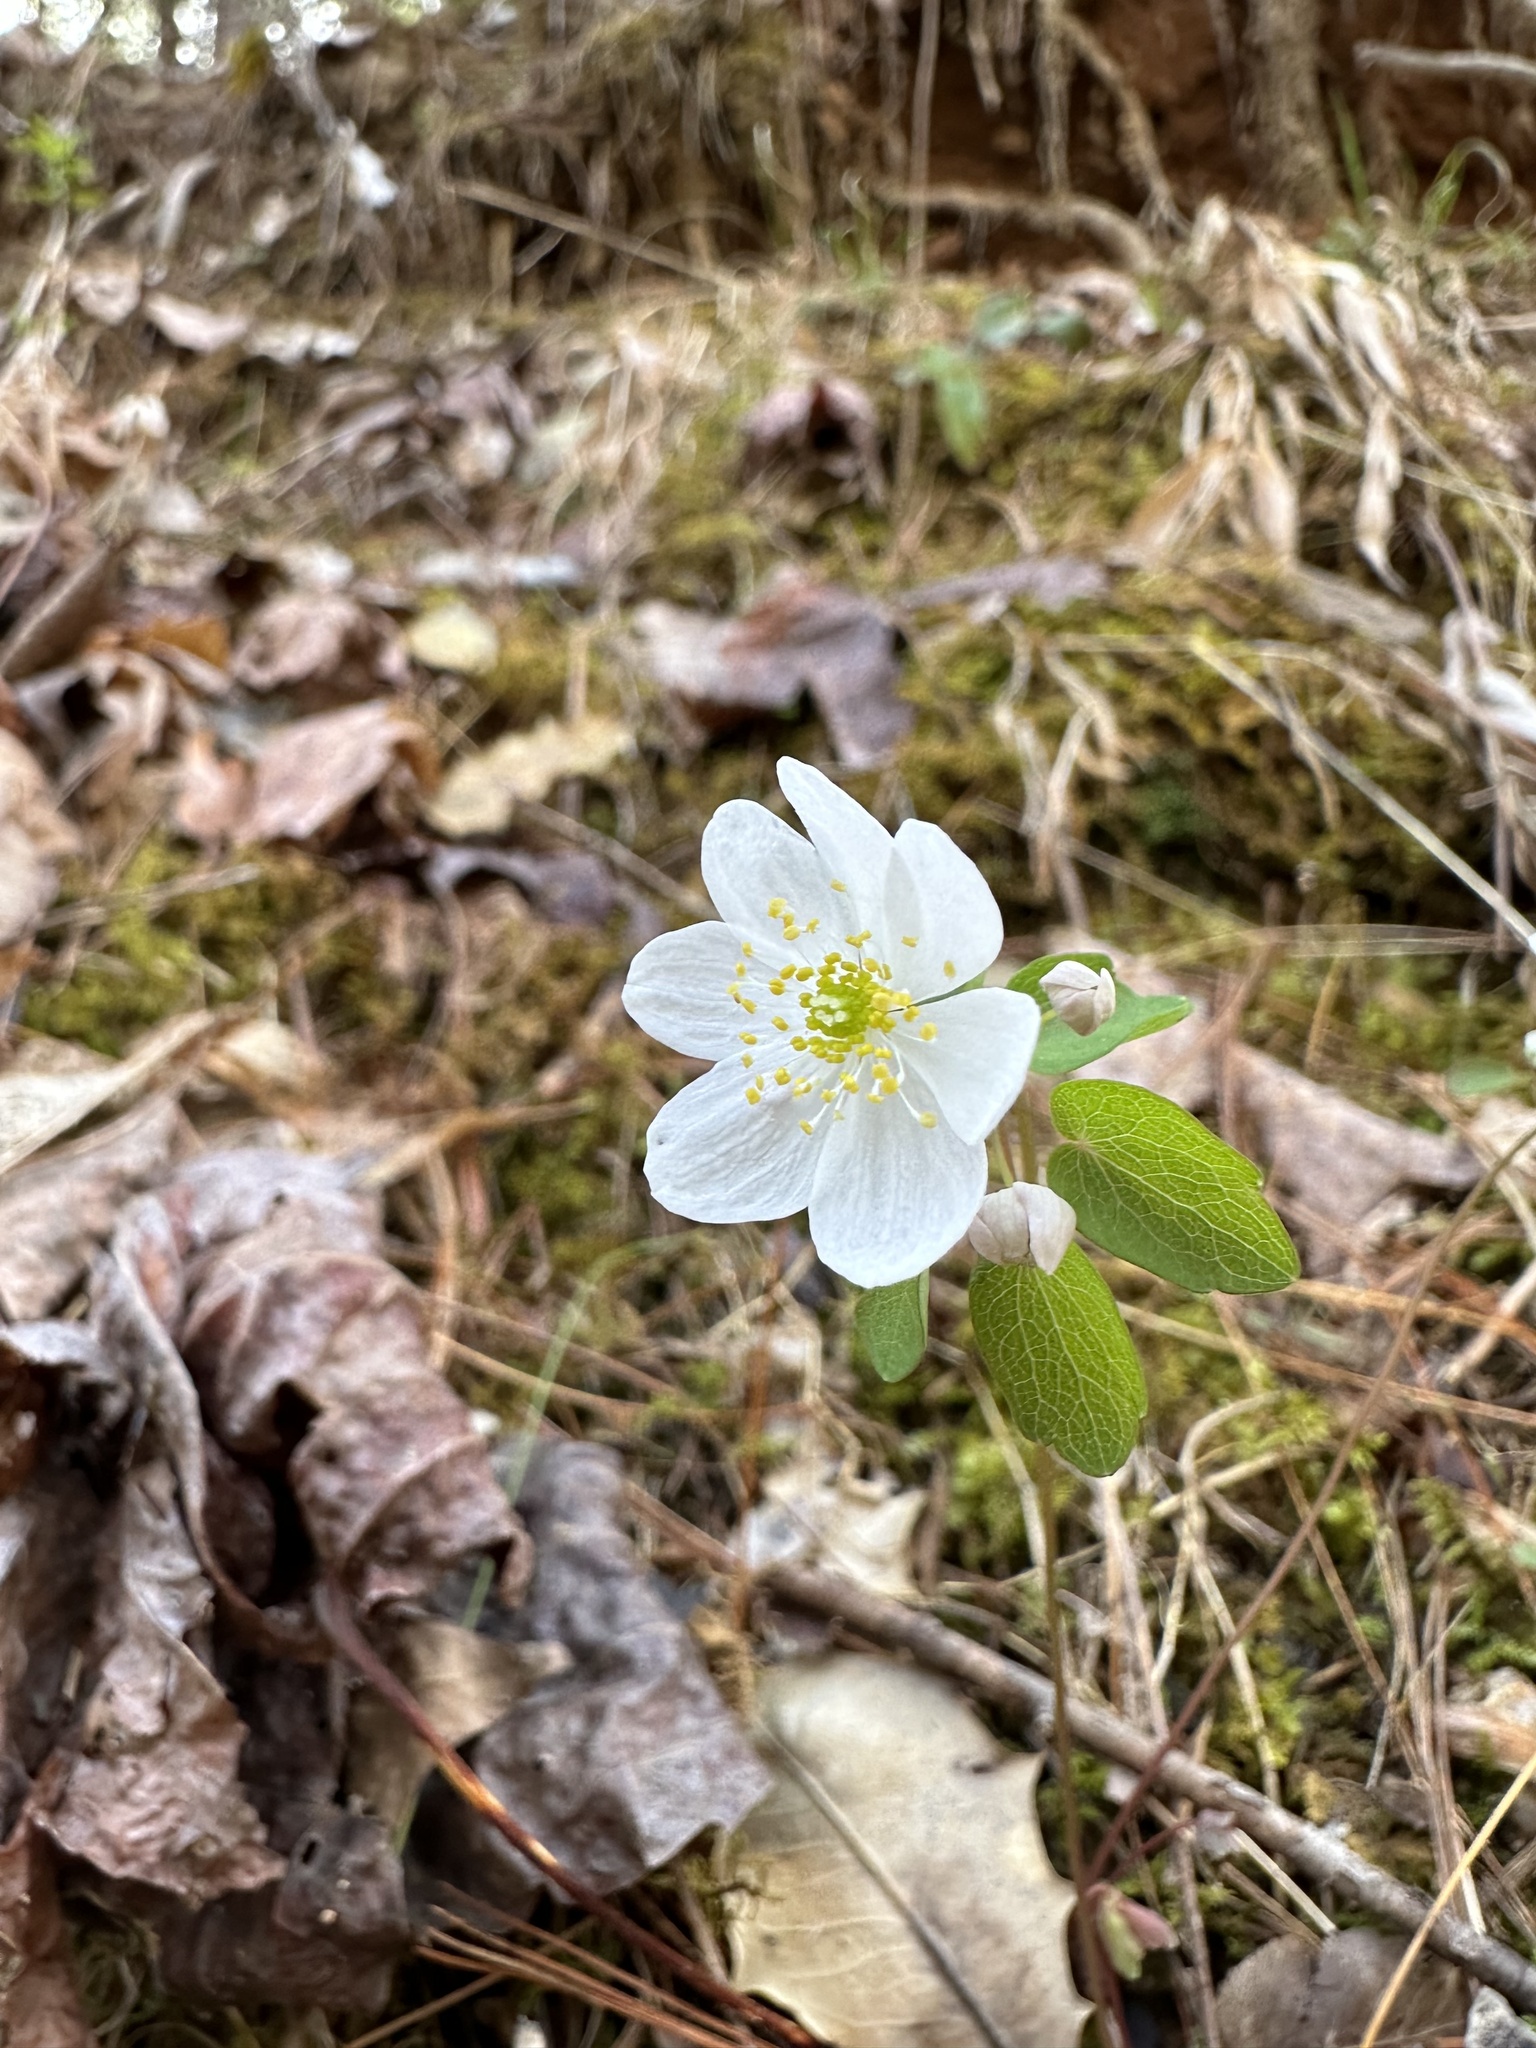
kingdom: Plantae
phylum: Tracheophyta
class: Magnoliopsida
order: Ranunculales
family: Ranunculaceae
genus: Thalictrum
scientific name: Thalictrum thalictroides
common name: Rue-anemone
